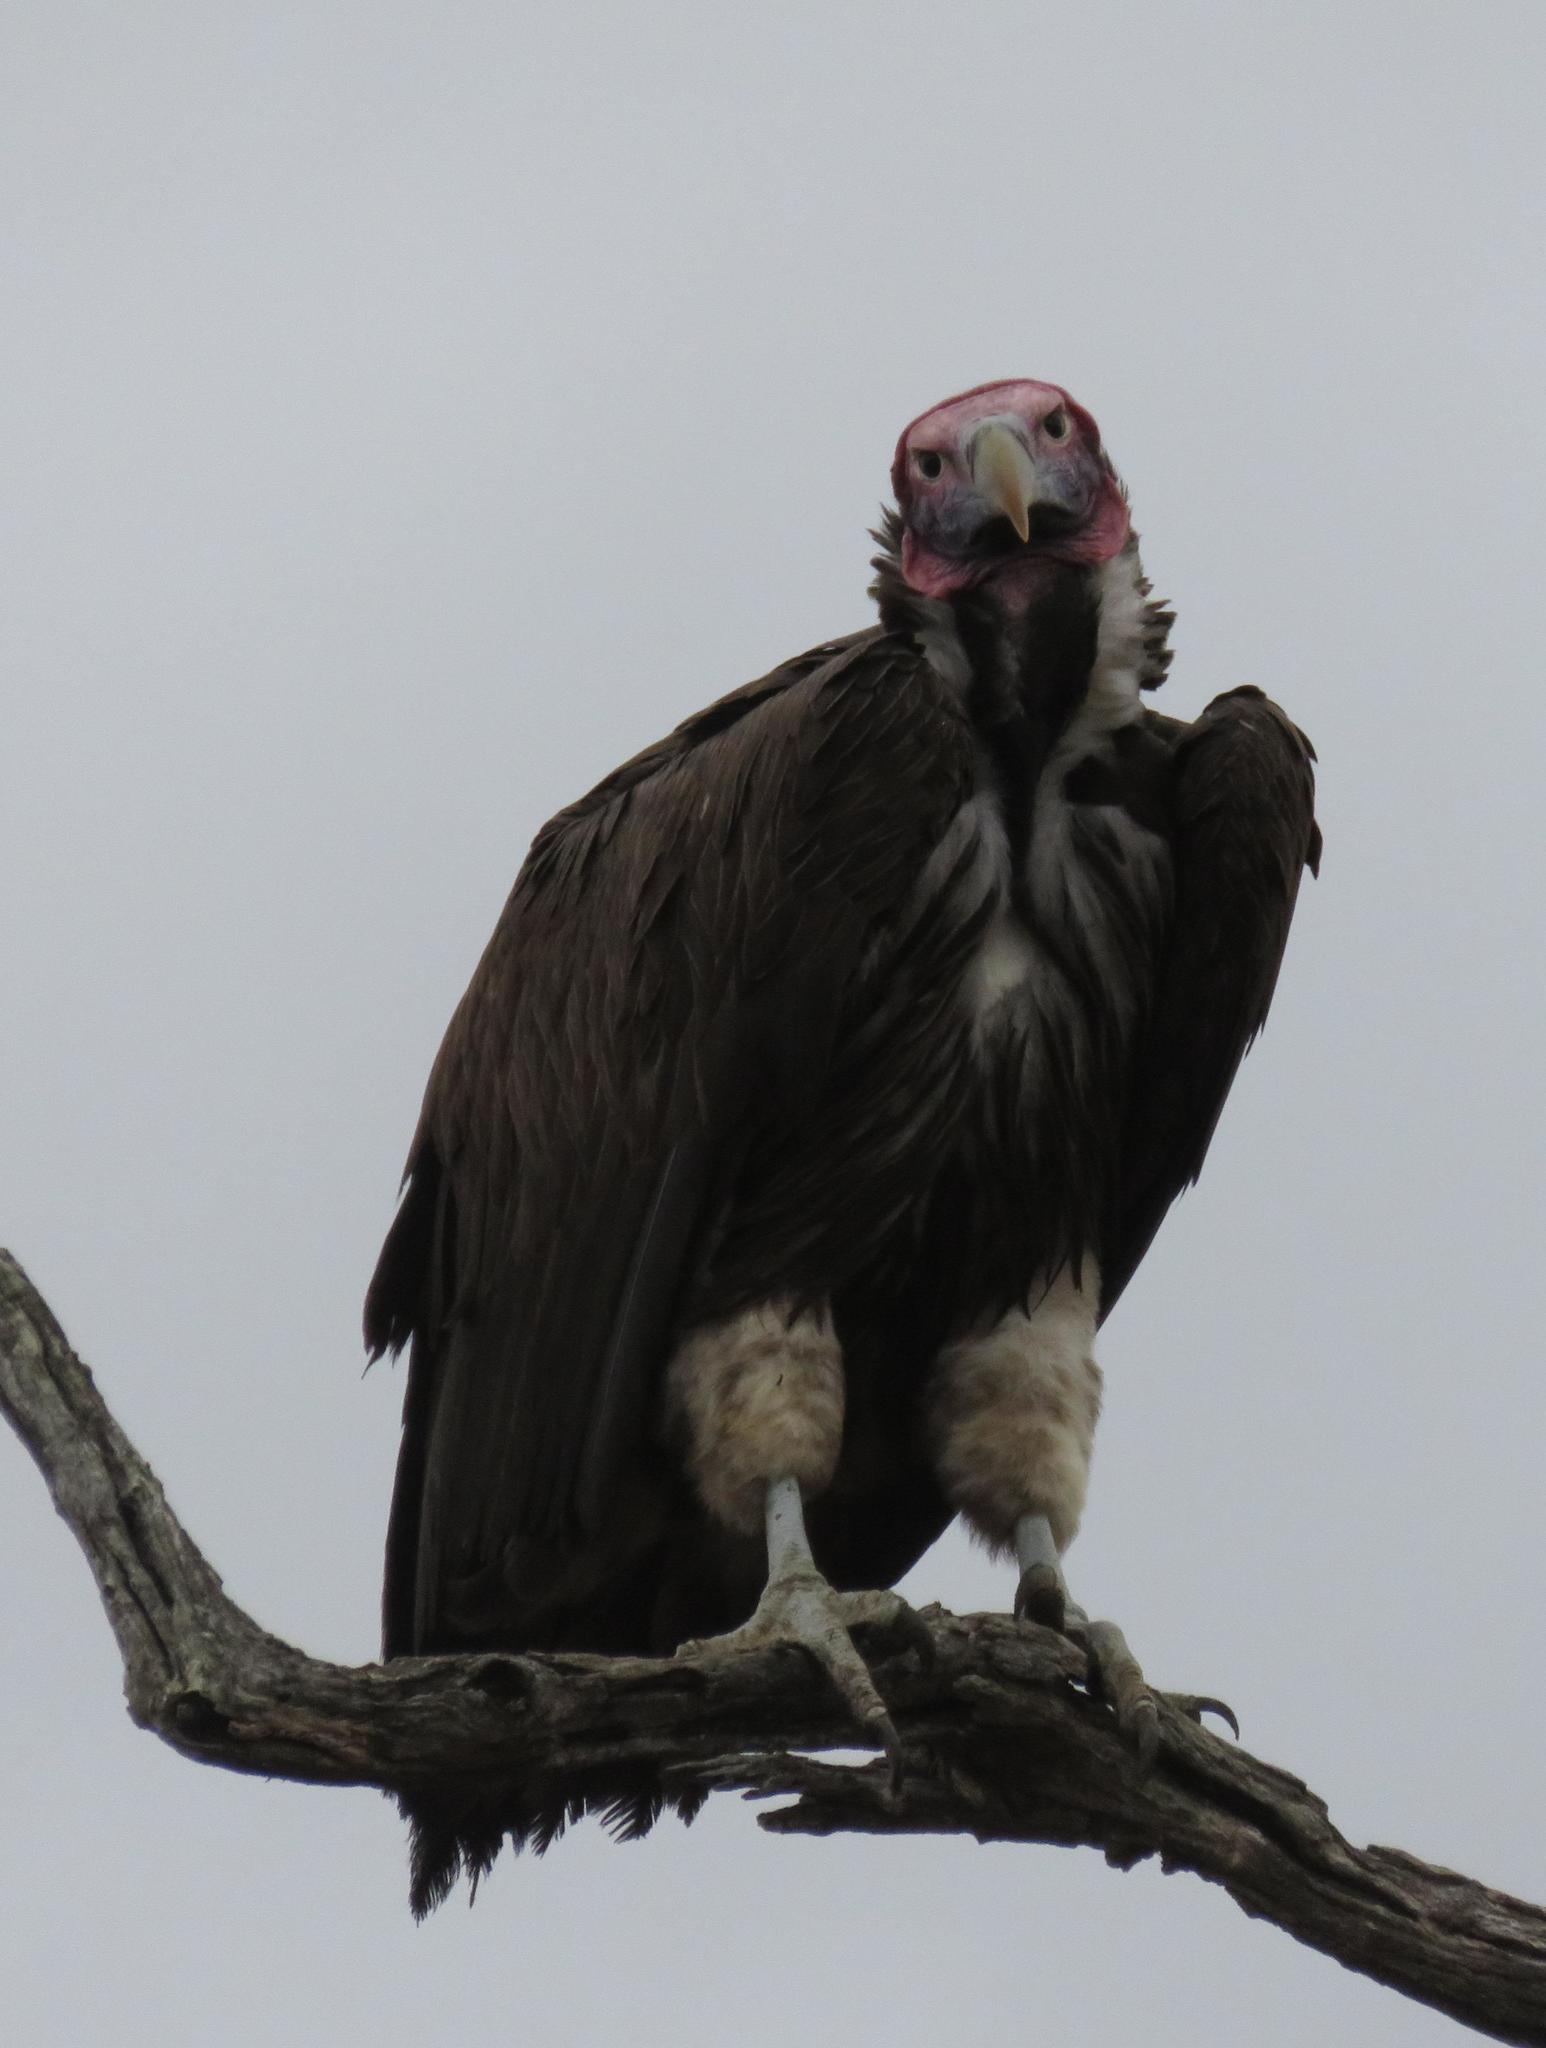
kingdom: Animalia
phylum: Chordata
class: Aves
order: Accipitriformes
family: Accipitridae
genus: Torgos
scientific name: Torgos tracheliotos
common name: Lappet-faced vulture
